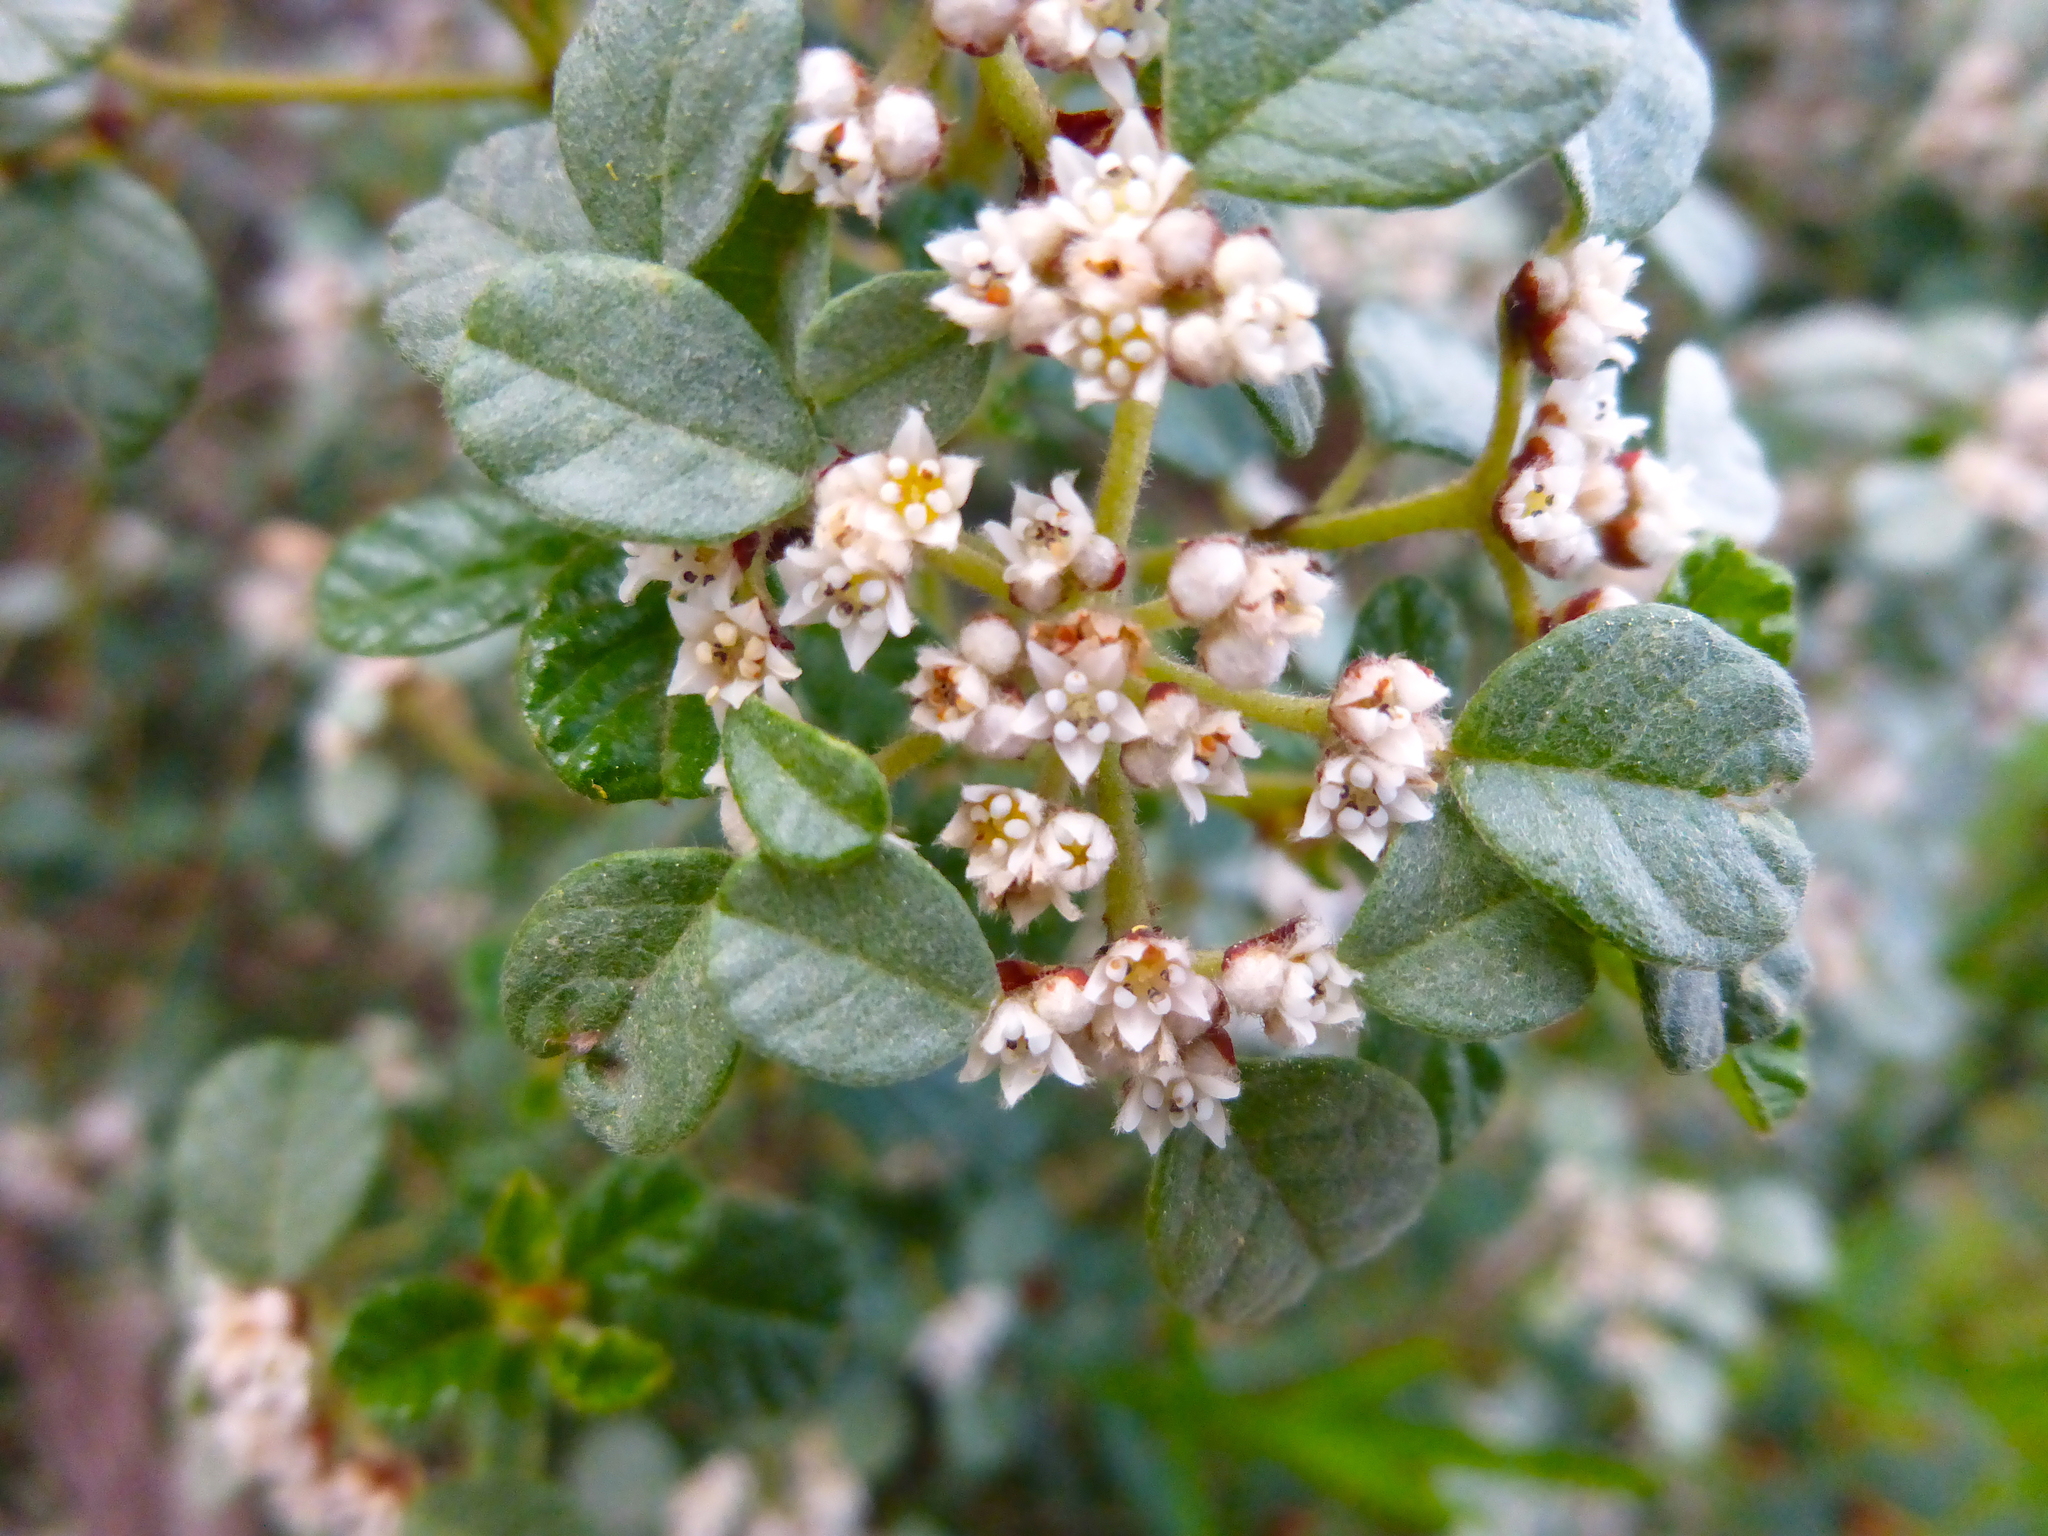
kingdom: Plantae
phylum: Tracheophyta
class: Magnoliopsida
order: Rosales
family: Rhamnaceae
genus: Spyridium
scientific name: Spyridium parvifolium
